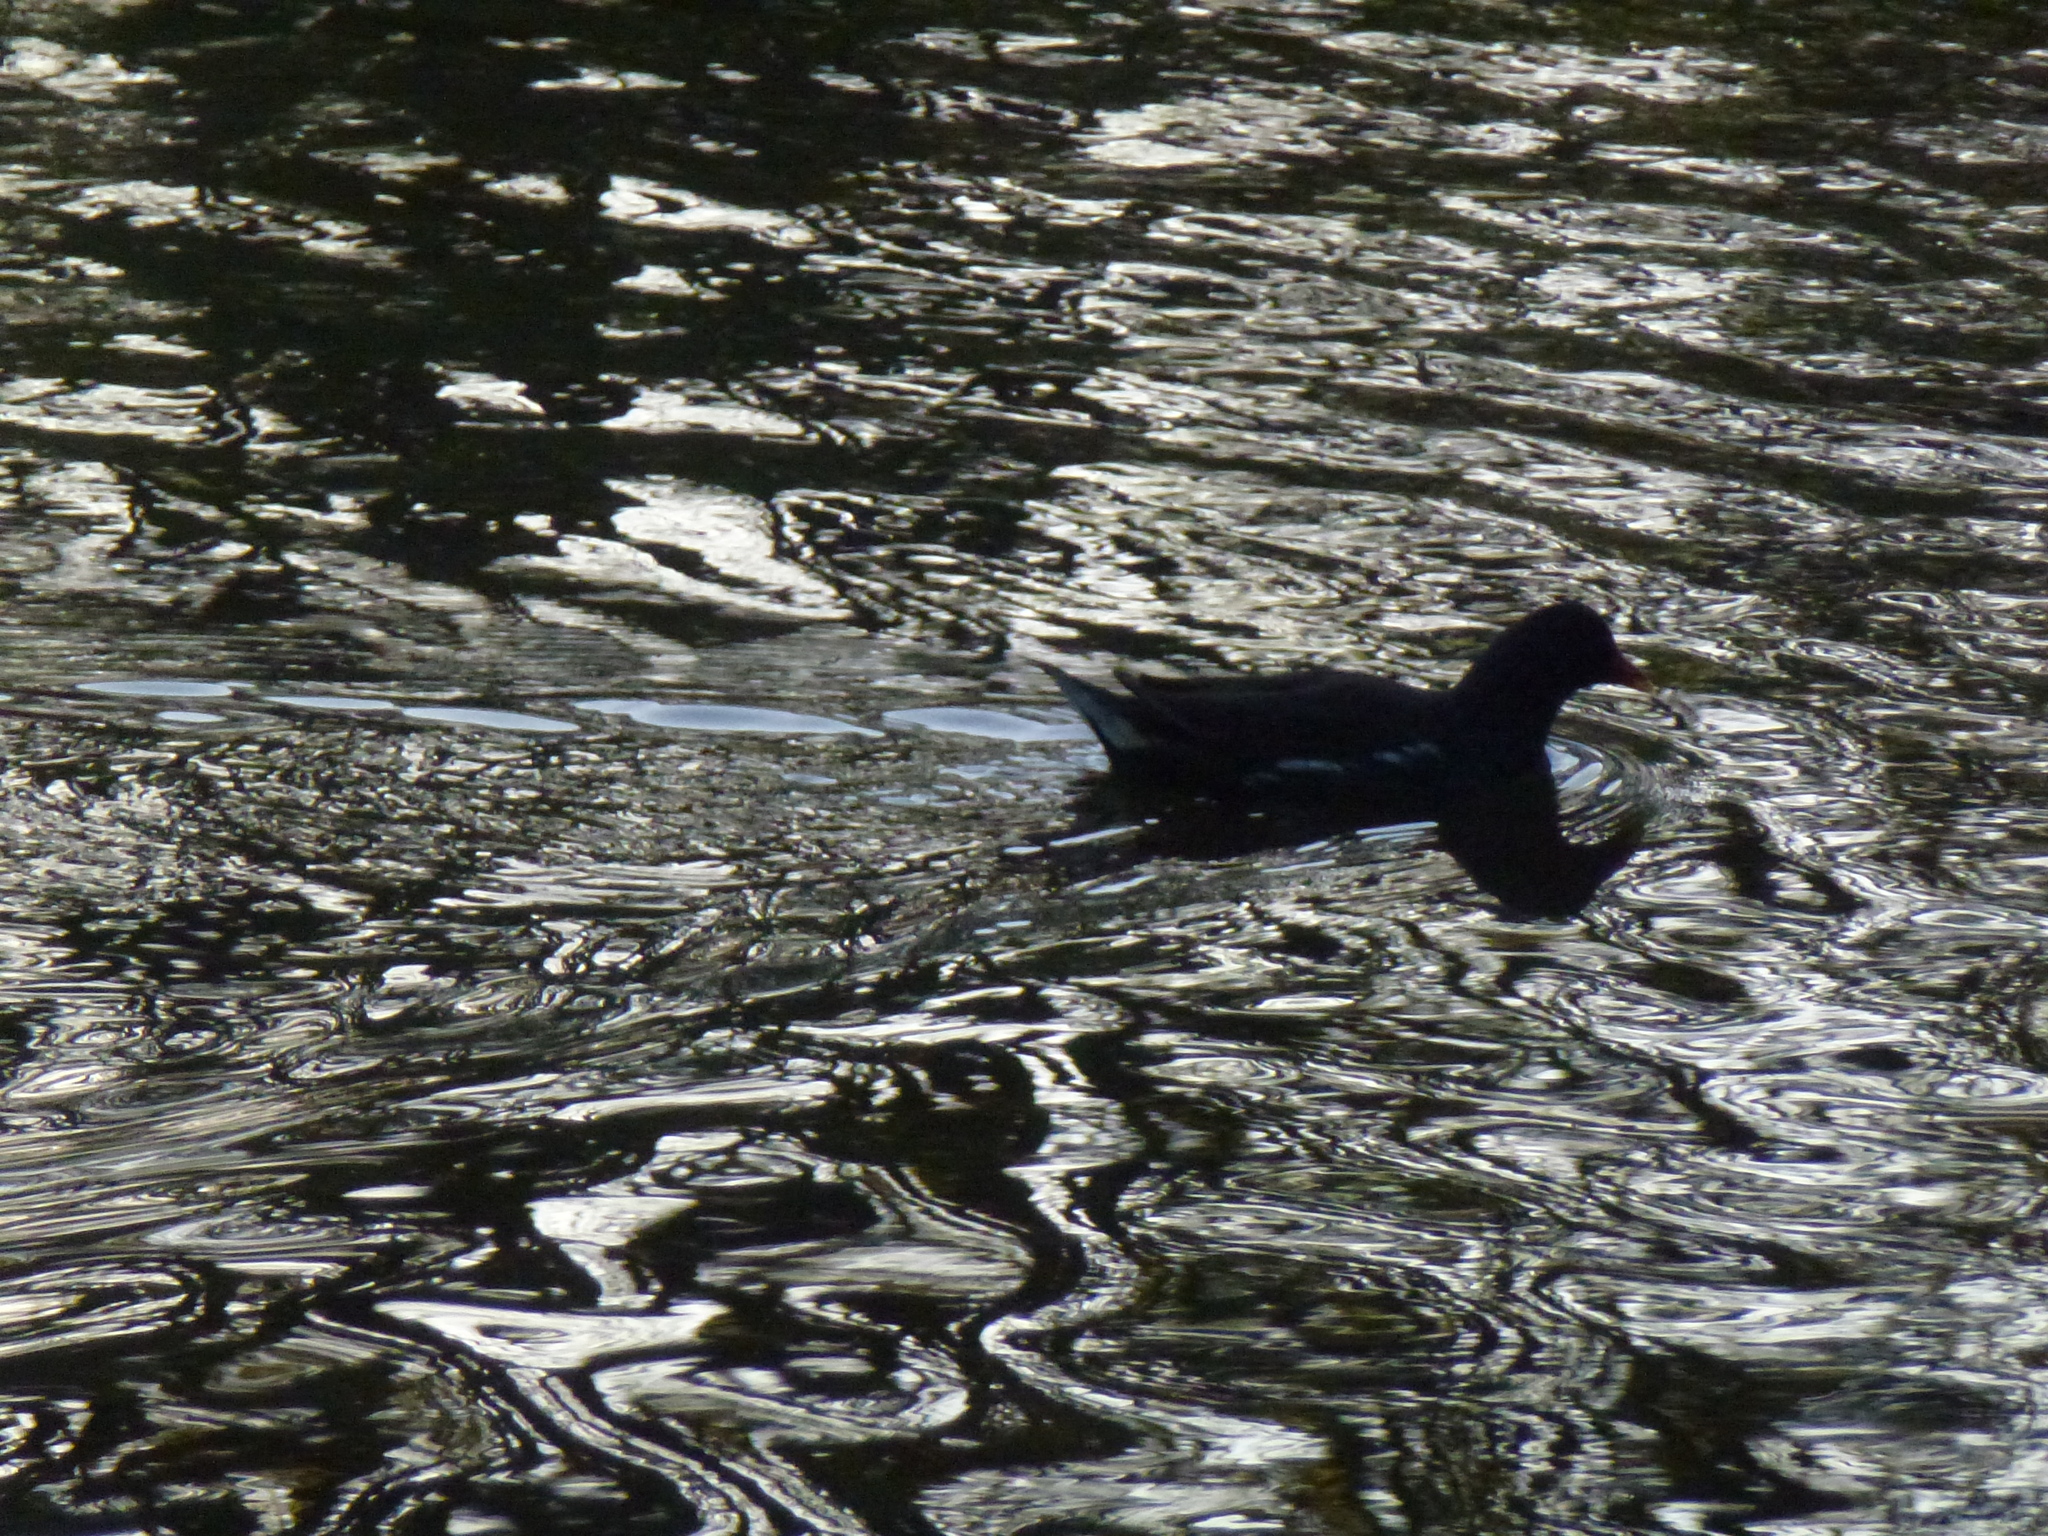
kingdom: Animalia
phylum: Chordata
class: Aves
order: Gruiformes
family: Rallidae
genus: Gallinula
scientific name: Gallinula chloropus
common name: Common moorhen
